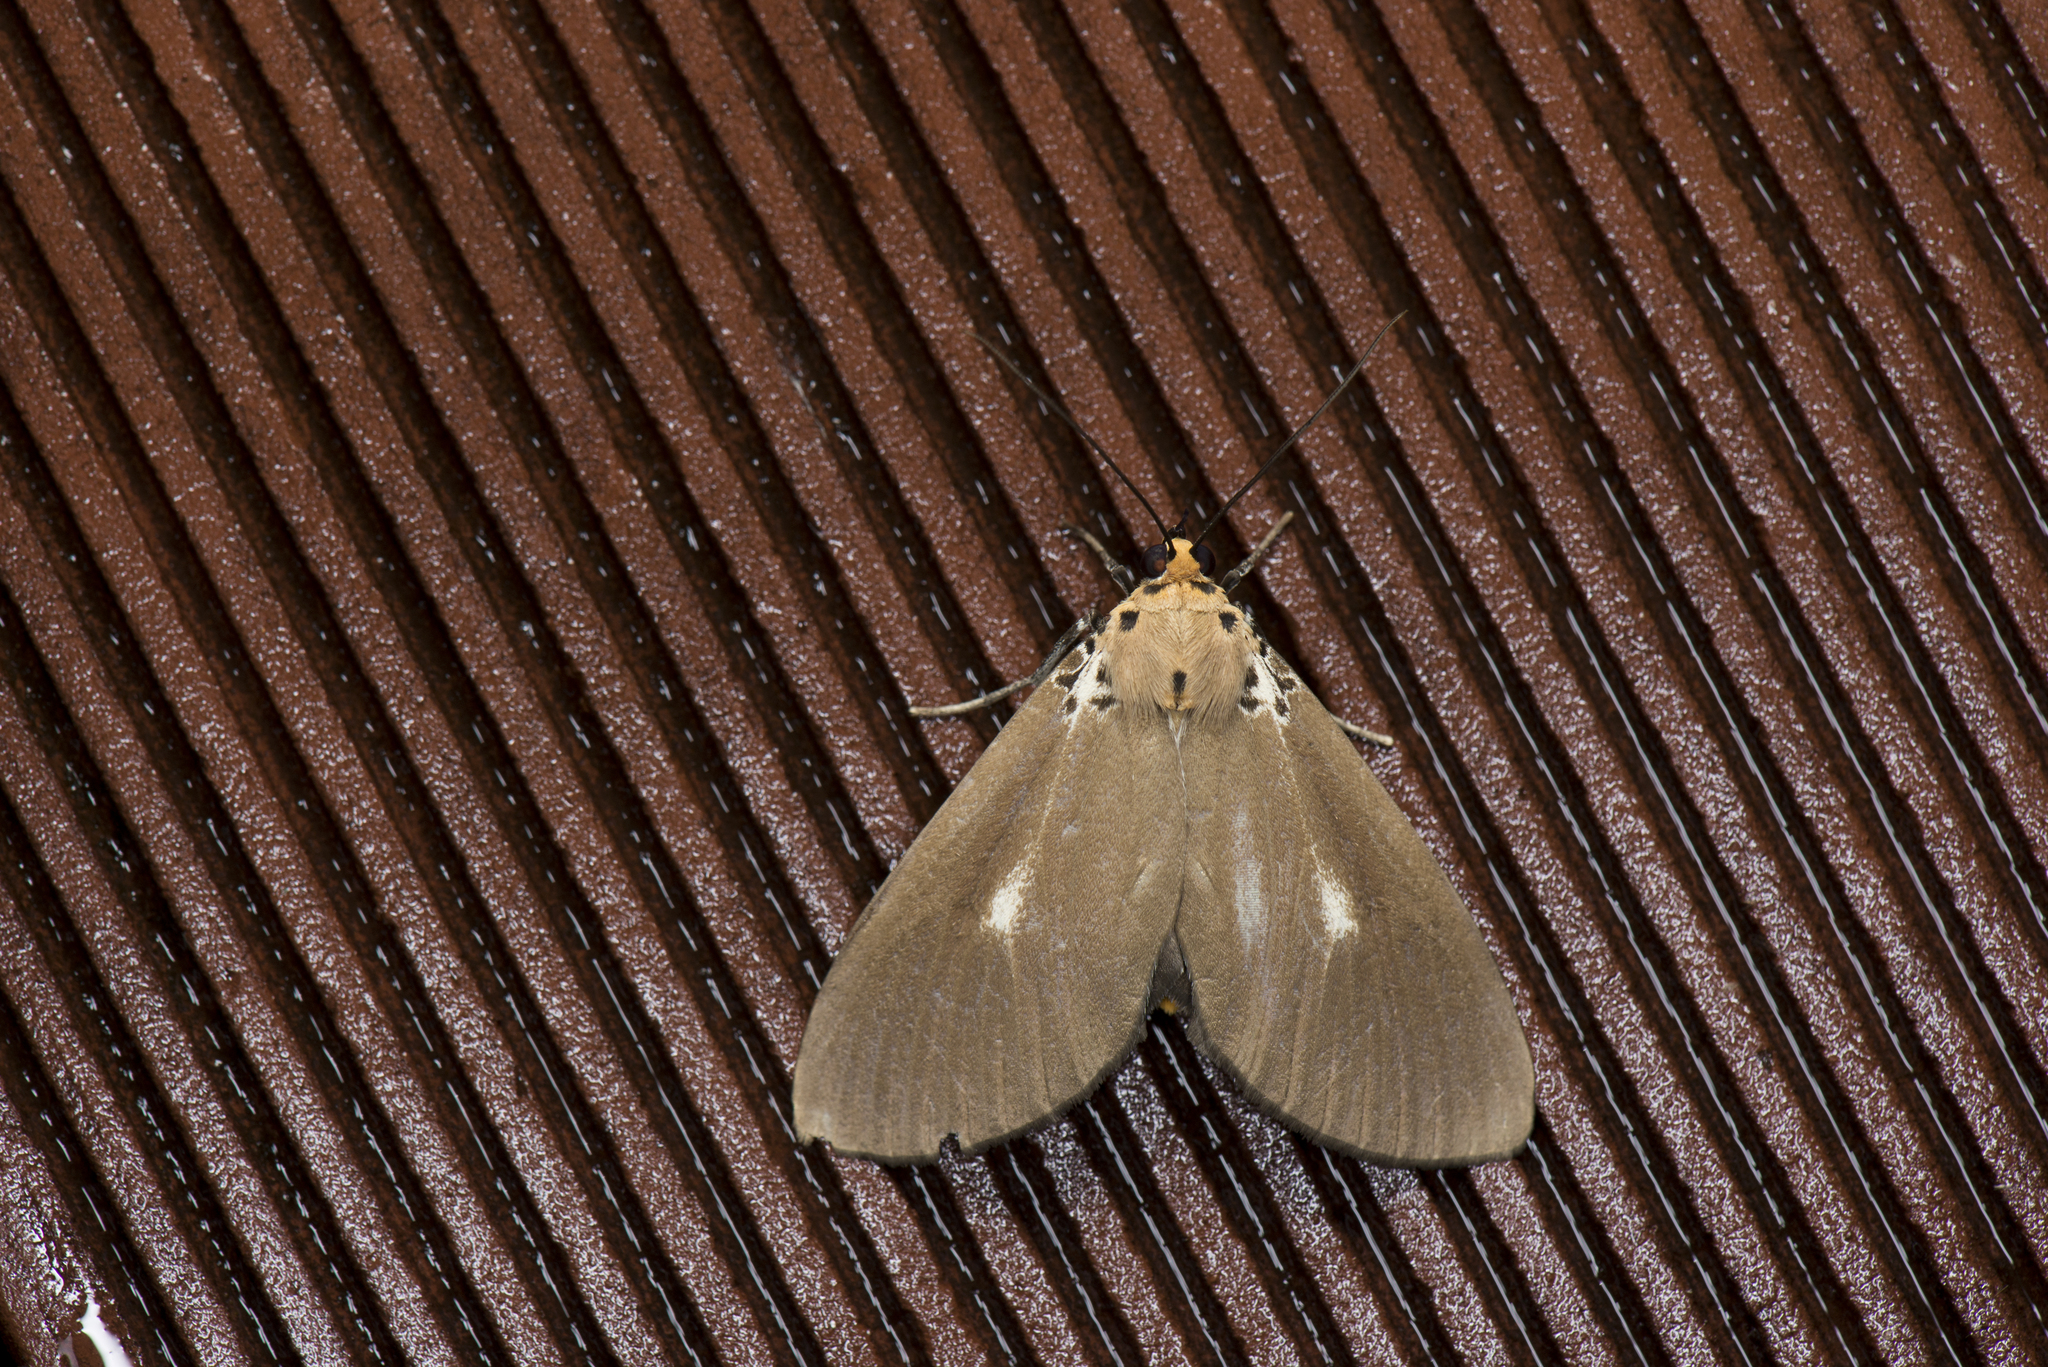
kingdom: Animalia
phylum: Arthropoda
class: Insecta
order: Lepidoptera
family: Erebidae
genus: Asota
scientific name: Asota heliconia
